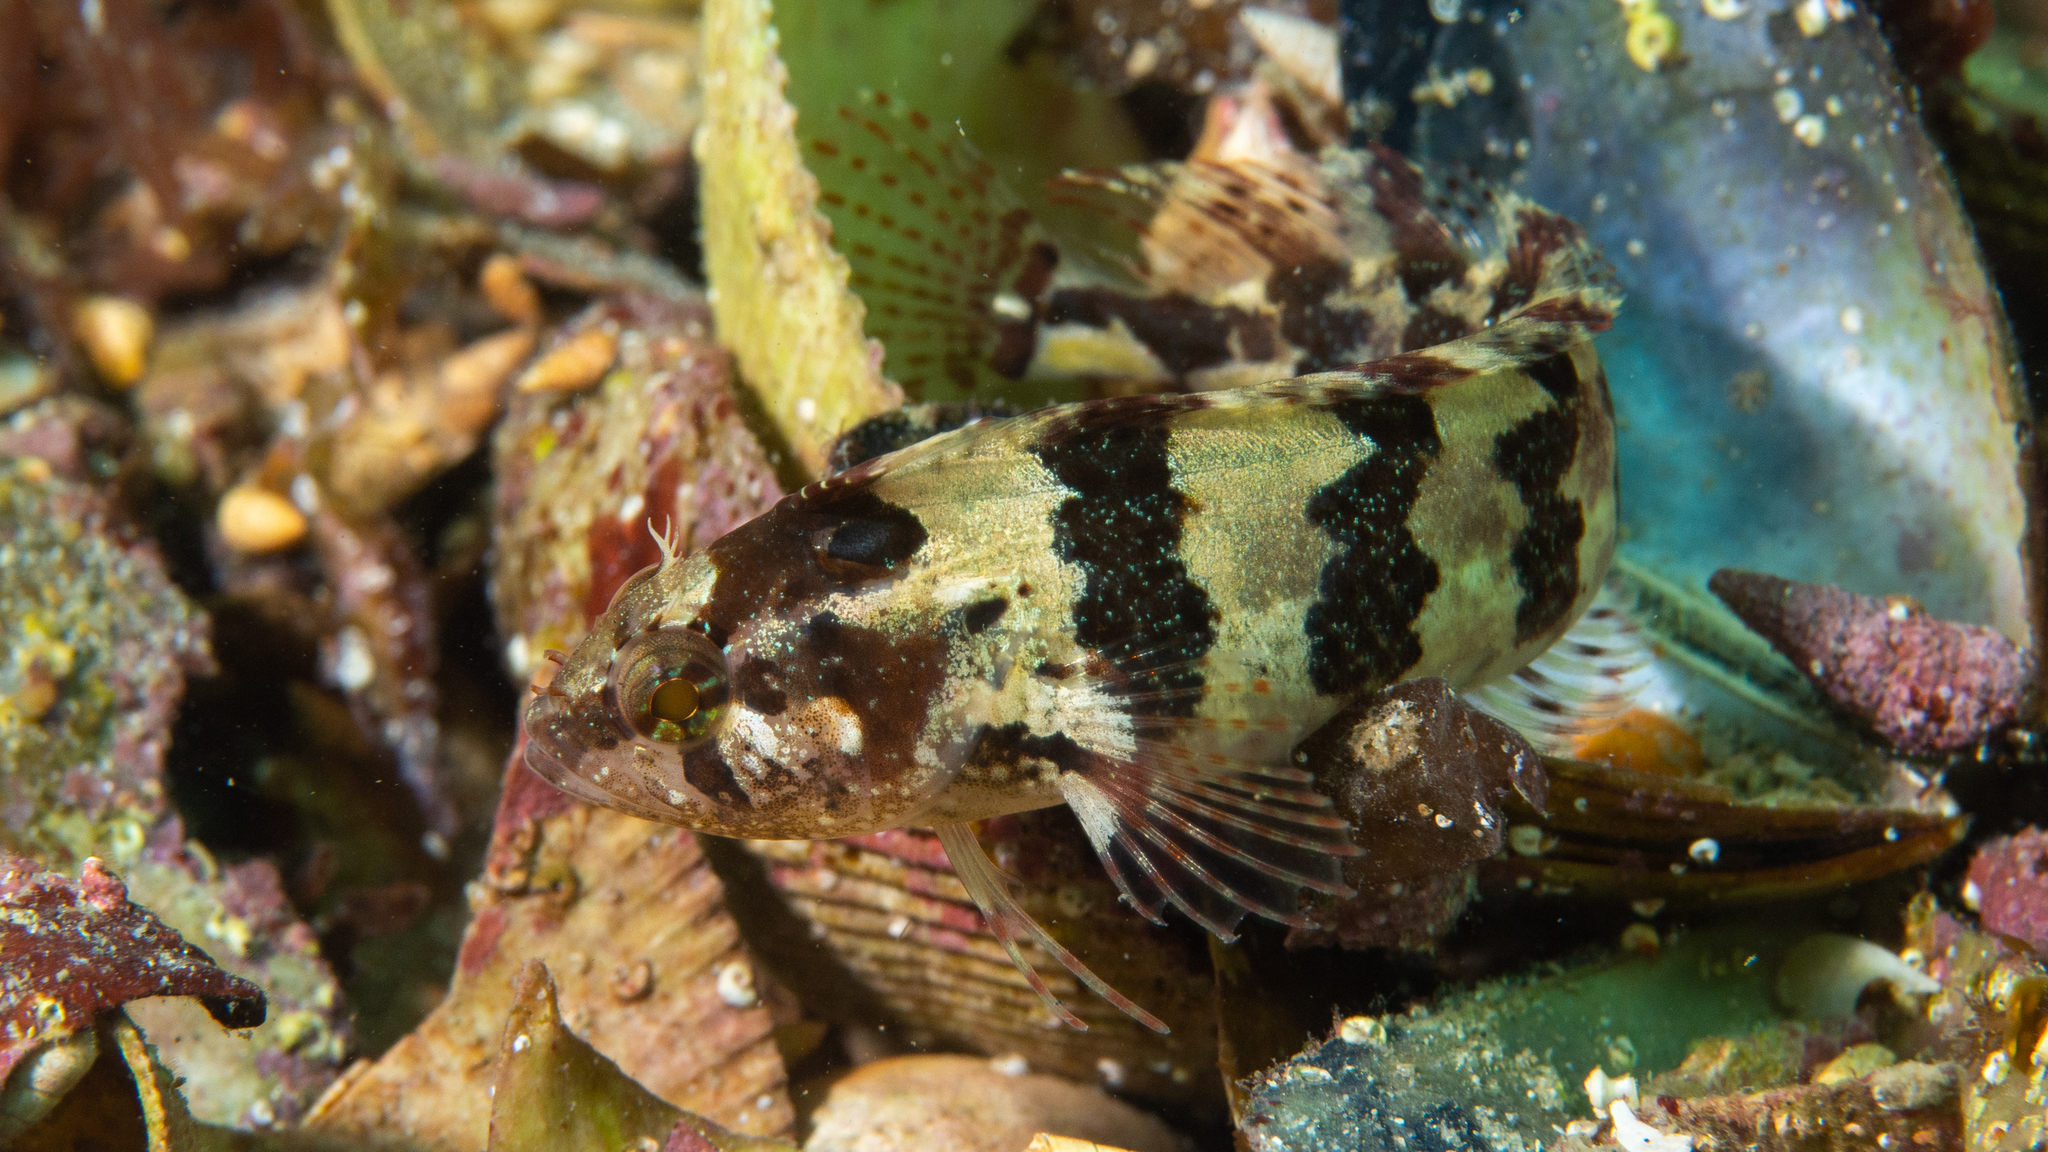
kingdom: Animalia
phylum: Chordata
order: Perciformes
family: Clinidae
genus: Heteroclinus
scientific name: Heteroclinus perspicillatus
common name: Common weedfish
